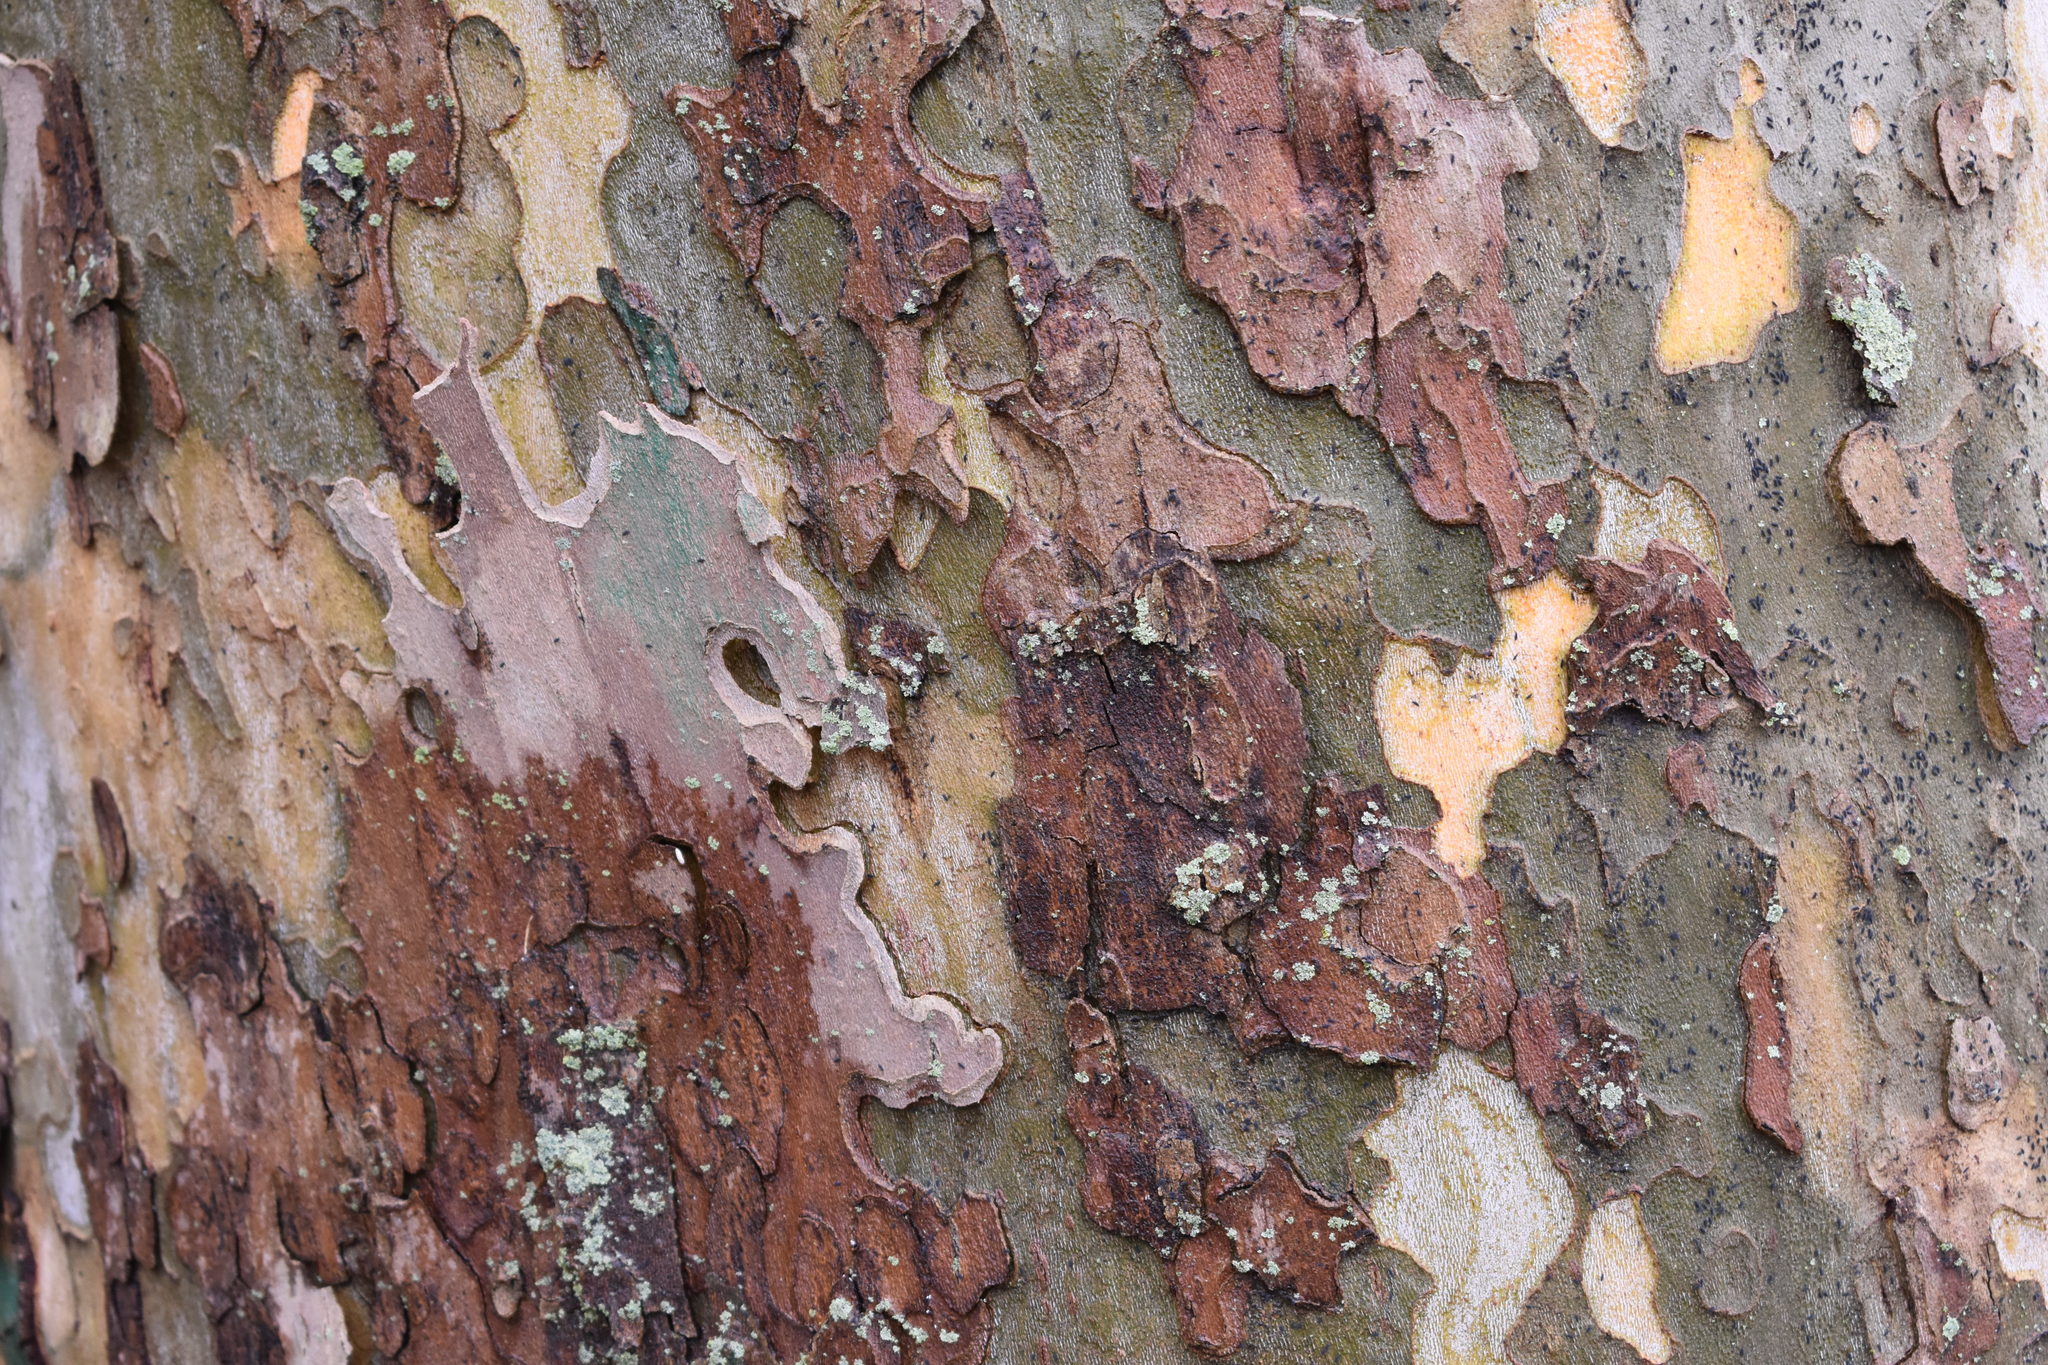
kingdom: Plantae
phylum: Tracheophyta
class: Magnoliopsida
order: Proteales
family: Platanaceae
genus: Platanus
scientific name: Platanus occidentalis
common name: American sycamore
